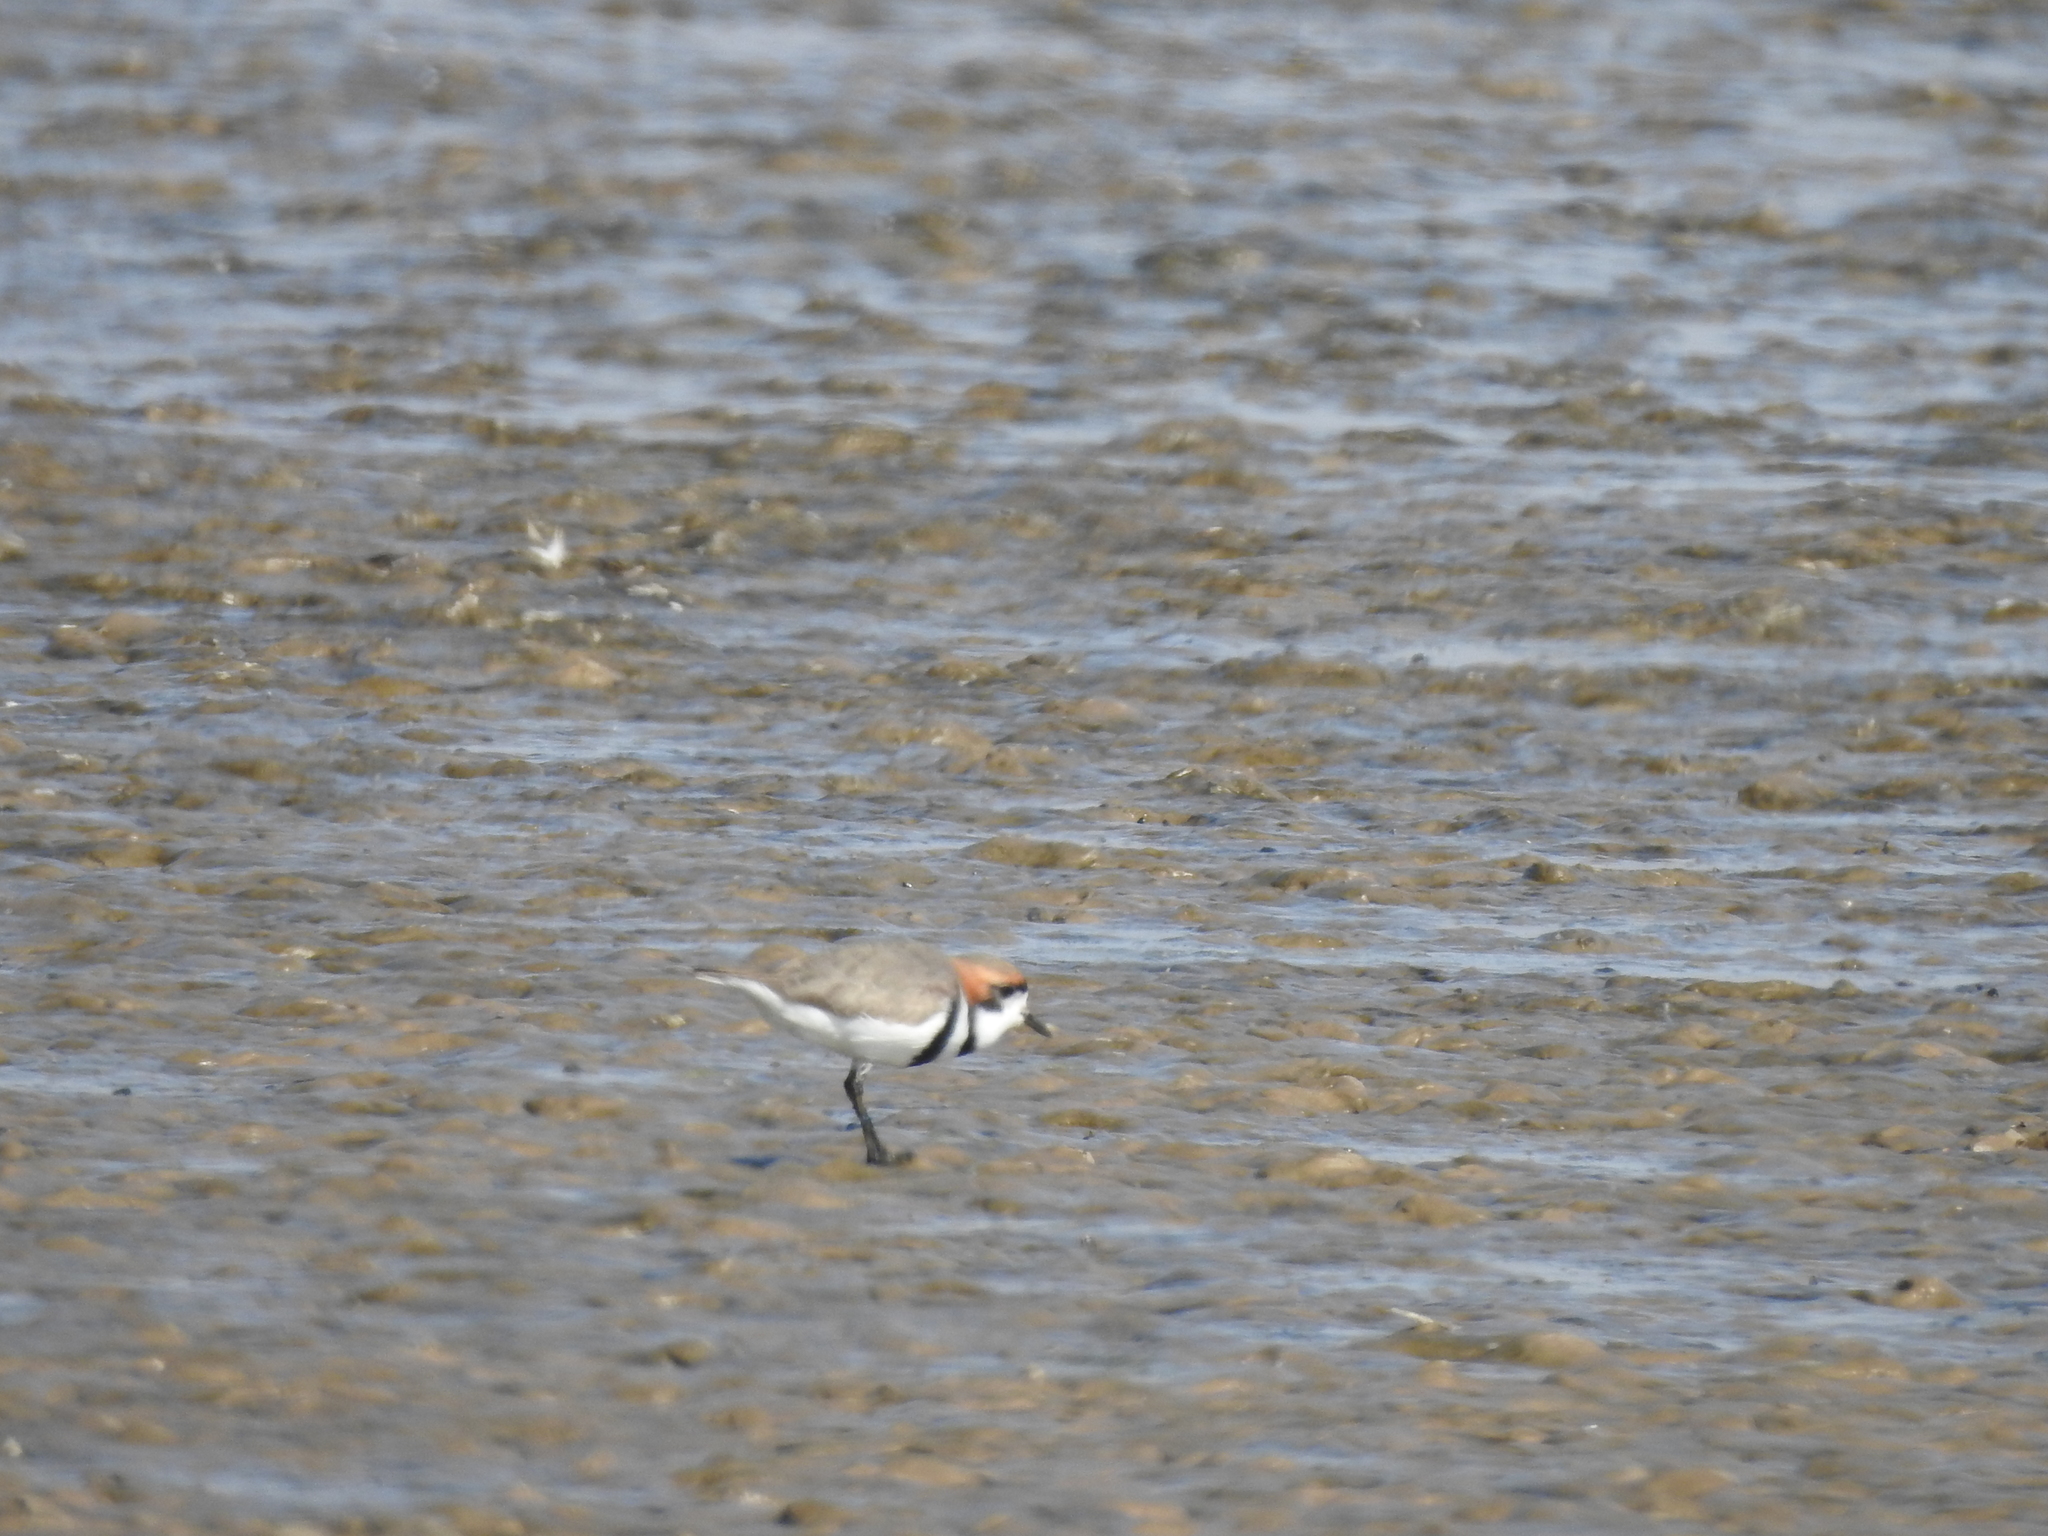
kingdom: Animalia
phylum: Chordata
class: Aves
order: Charadriiformes
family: Charadriidae
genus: Anarhynchus
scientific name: Anarhynchus
